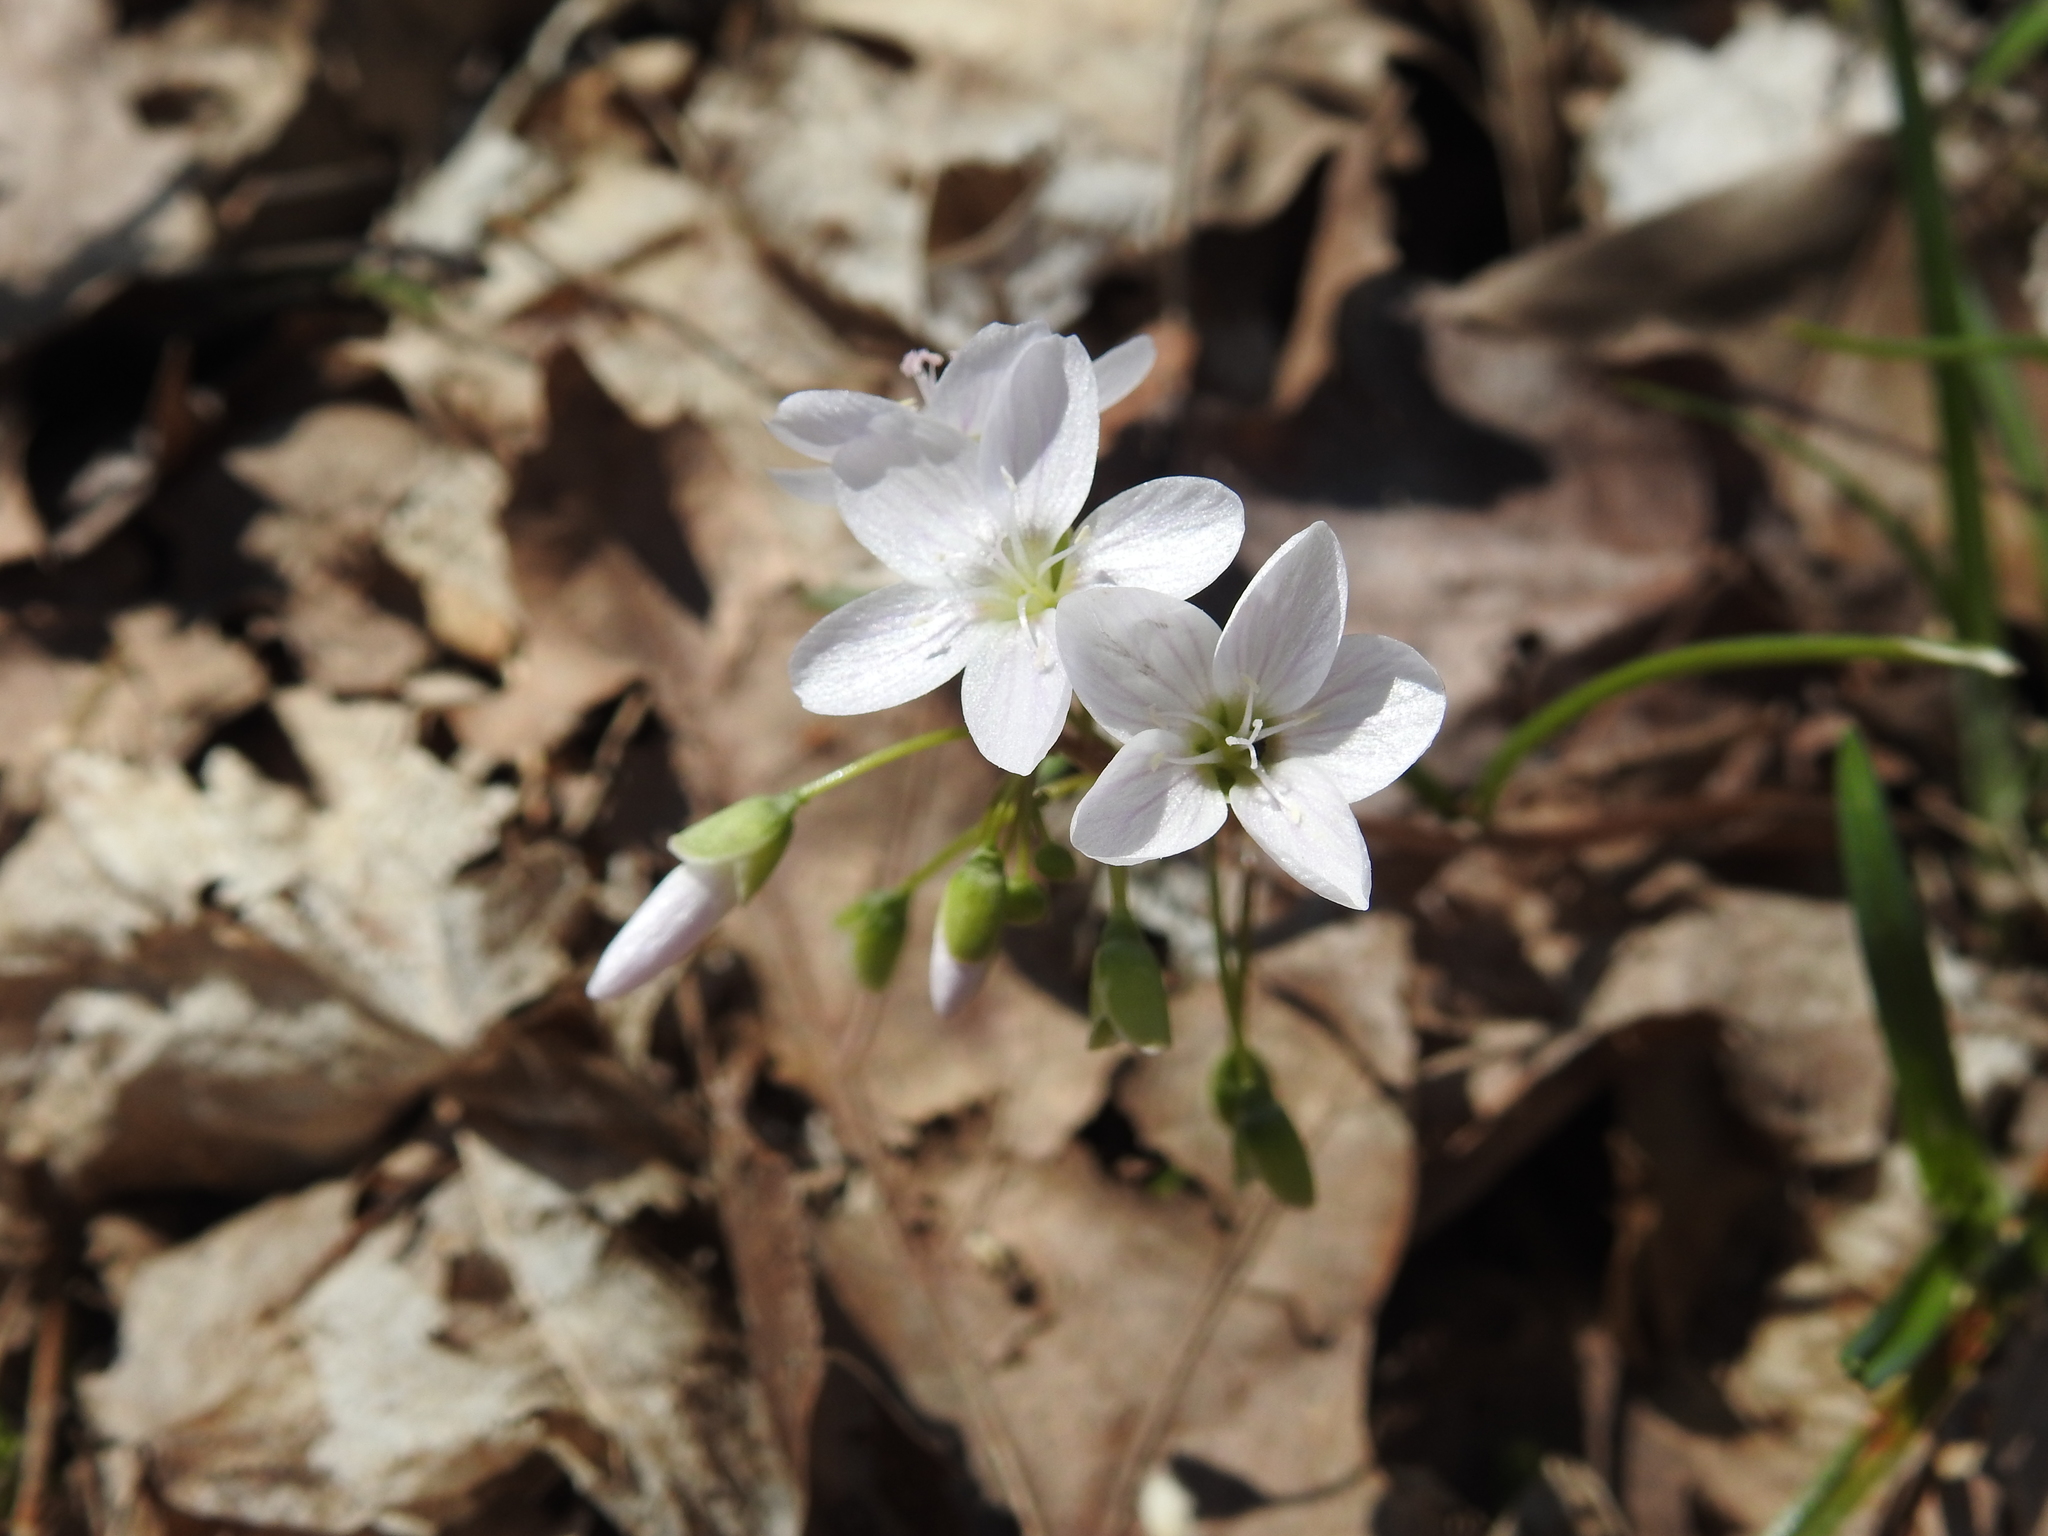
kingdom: Plantae
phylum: Tracheophyta
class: Magnoliopsida
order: Caryophyllales
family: Montiaceae
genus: Claytonia
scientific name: Claytonia virginica
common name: Virginia springbeauty
